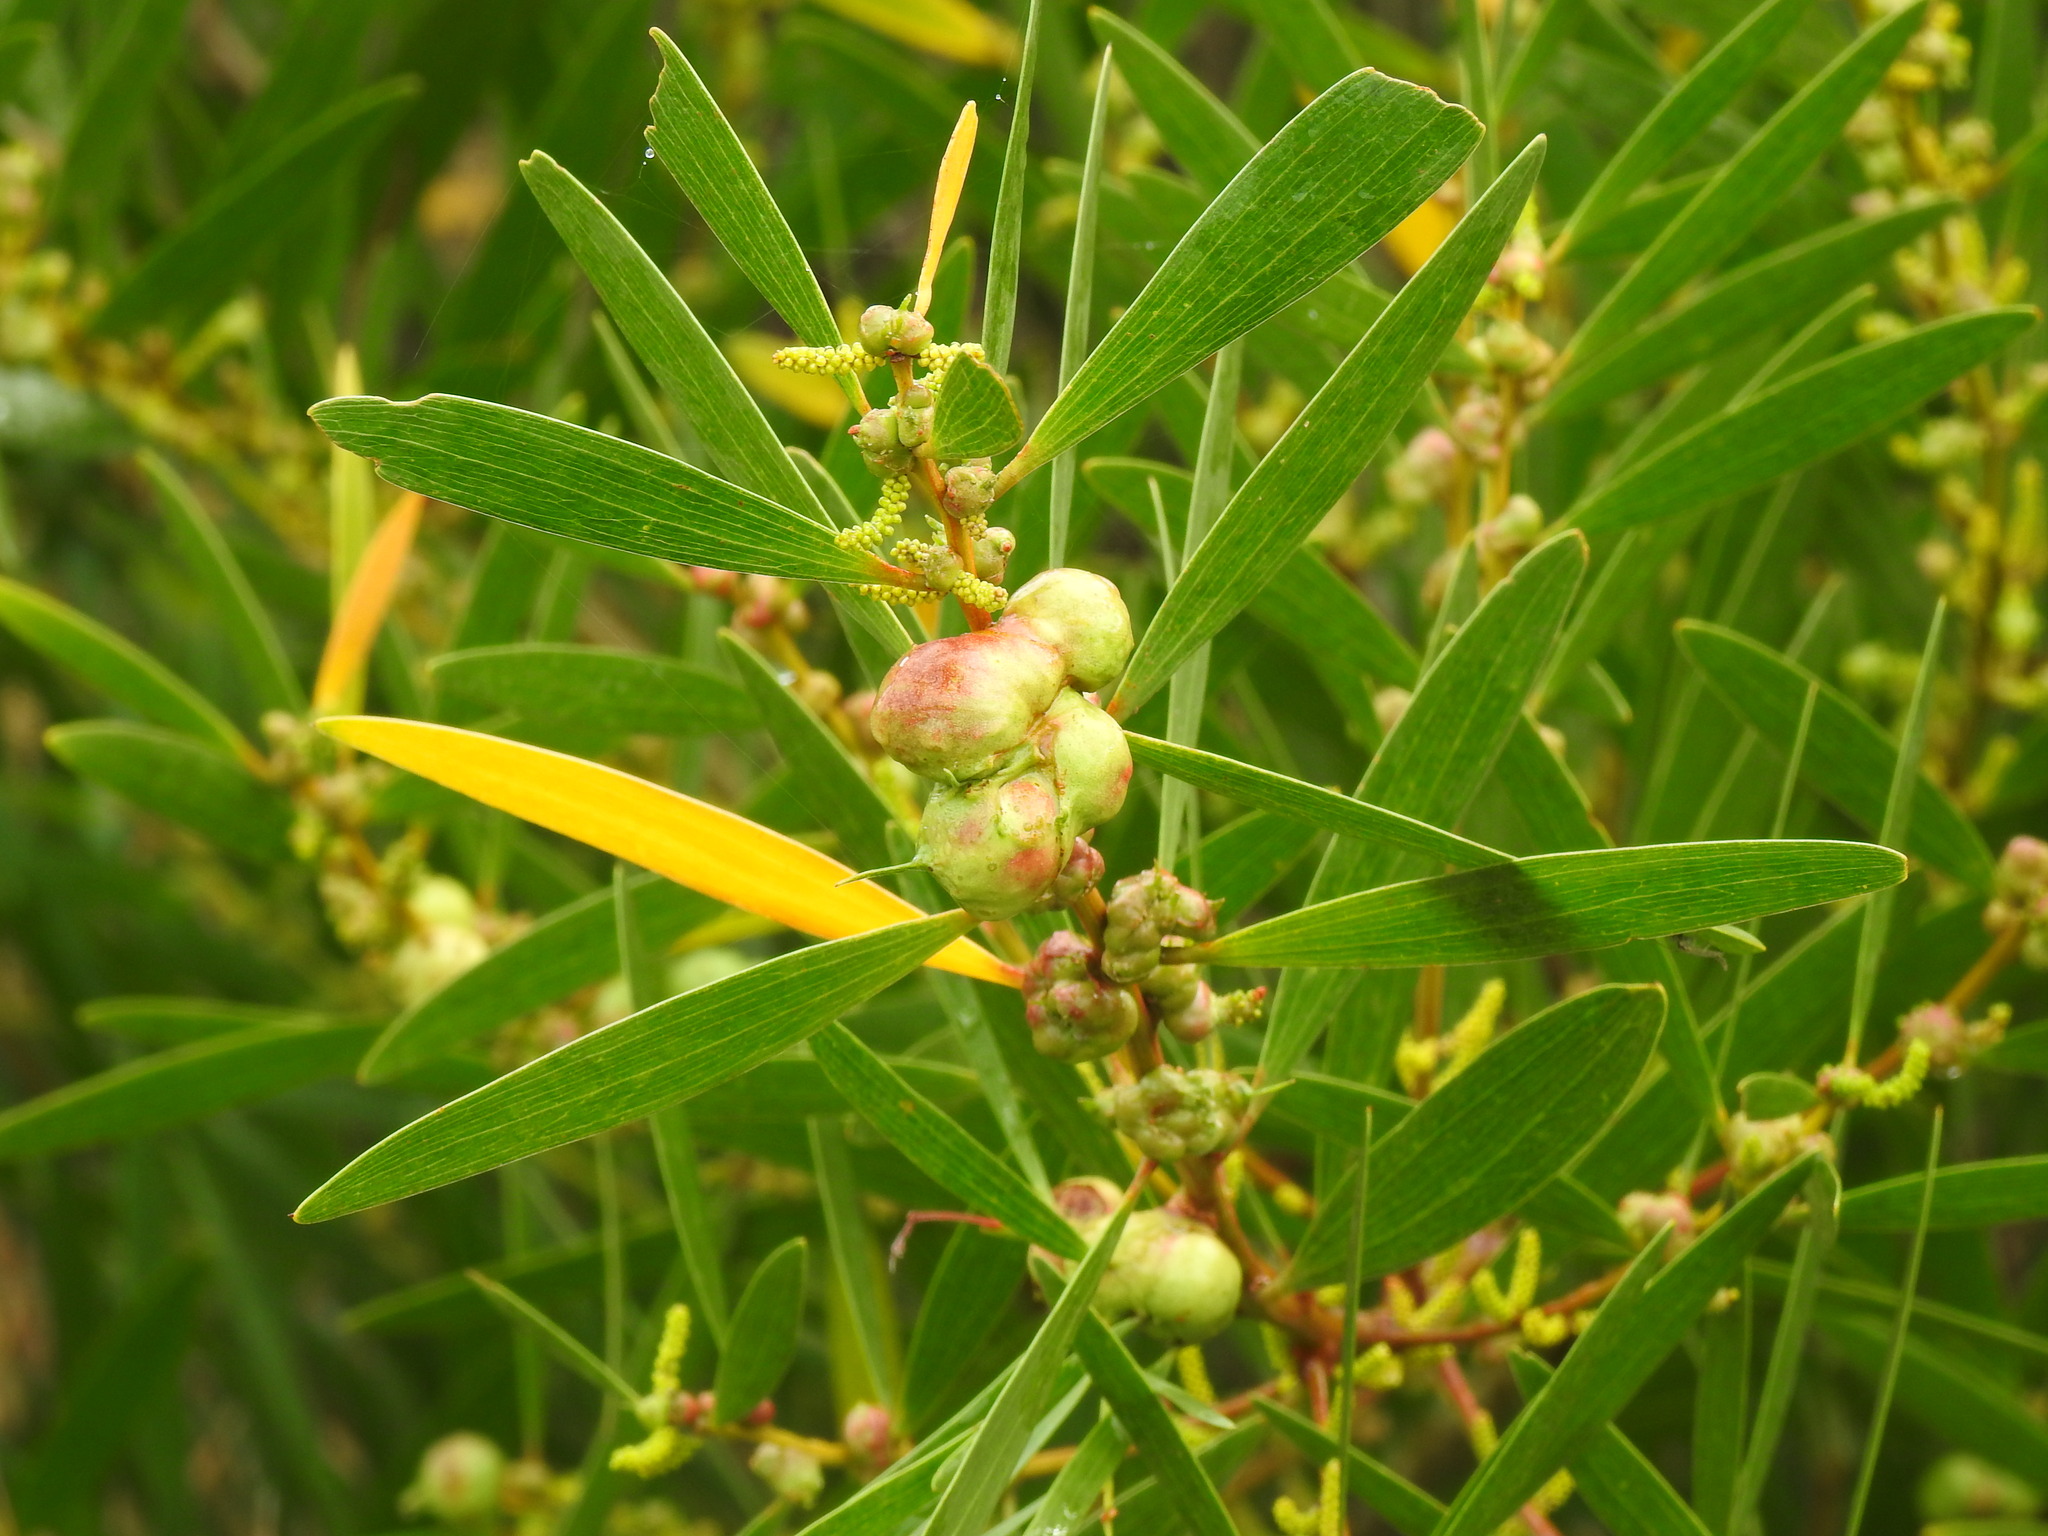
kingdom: Animalia
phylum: Arthropoda
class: Insecta
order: Hymenoptera
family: Pteromalidae
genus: Trichilogaster
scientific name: Trichilogaster acaciaelongifoliae
